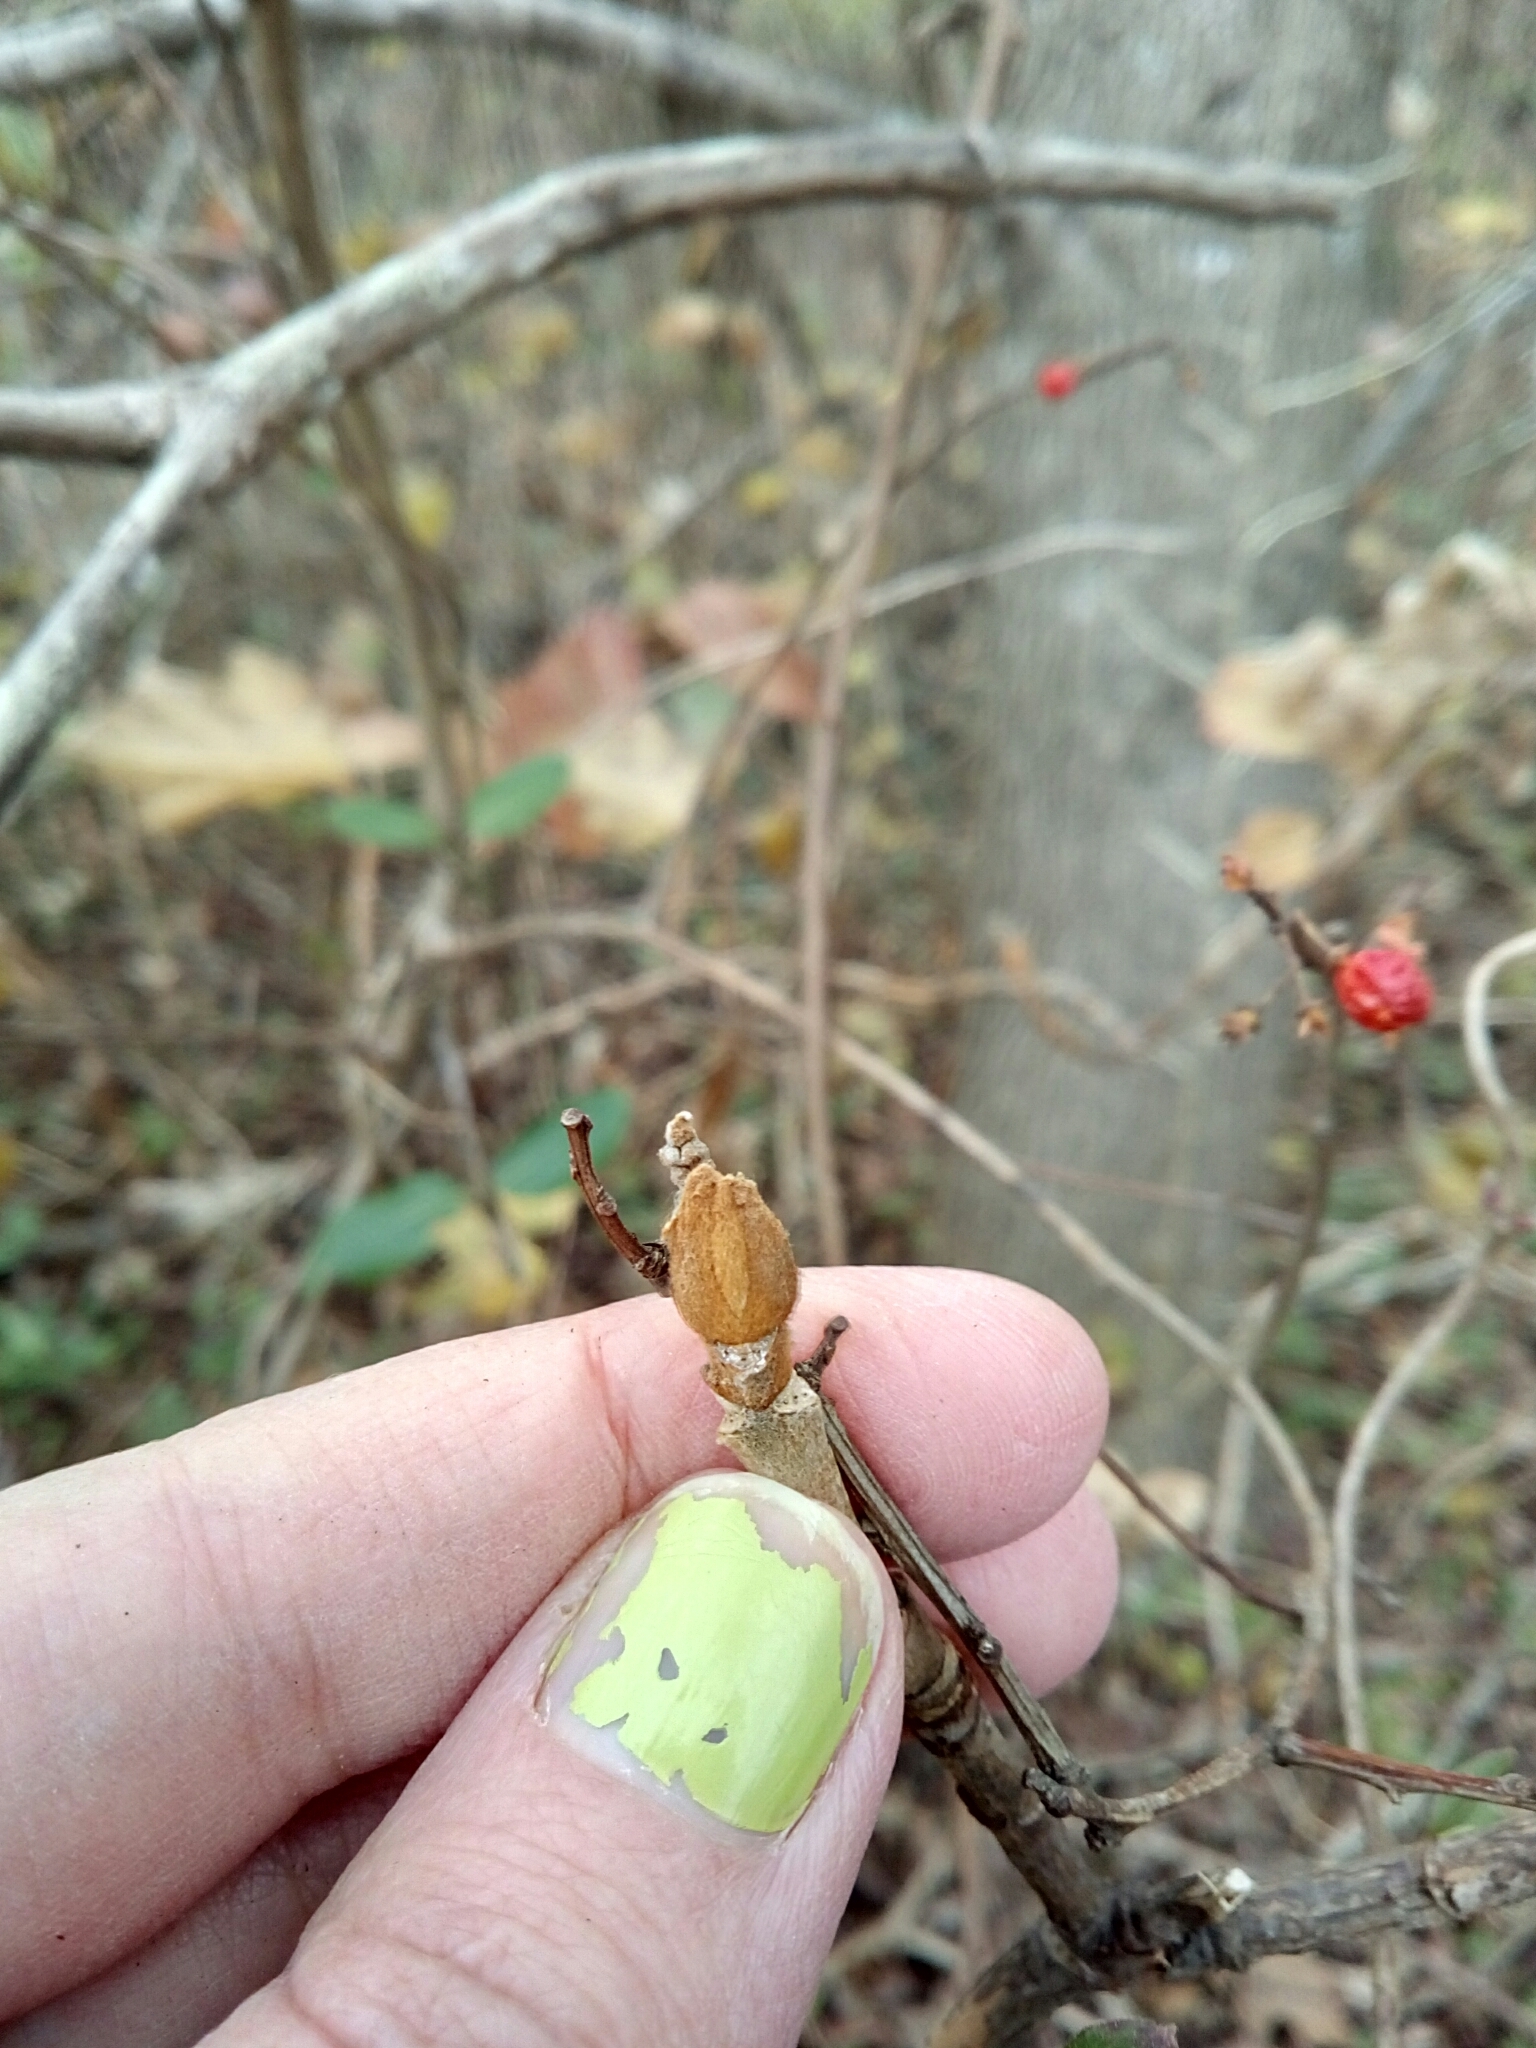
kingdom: Plantae
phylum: Tracheophyta
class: Magnoliopsida
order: Cornales
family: Hydrangeaceae
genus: Hydrangea
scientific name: Hydrangea quercifolia
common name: Oak-leaf hydrangea
